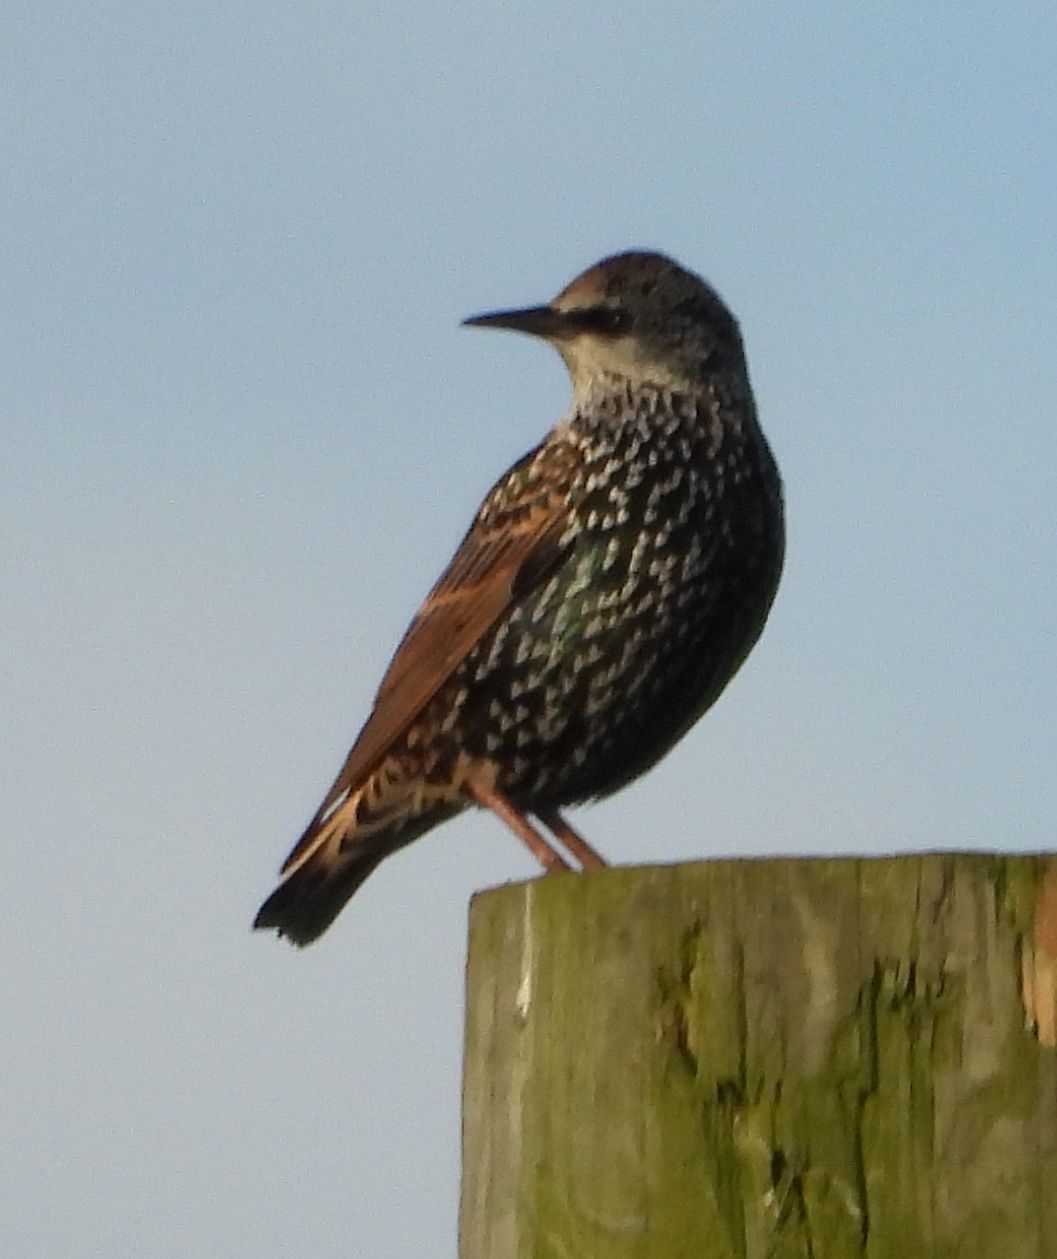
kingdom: Animalia
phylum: Chordata
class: Aves
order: Passeriformes
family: Sturnidae
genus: Sturnus
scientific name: Sturnus vulgaris
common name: Common starling
